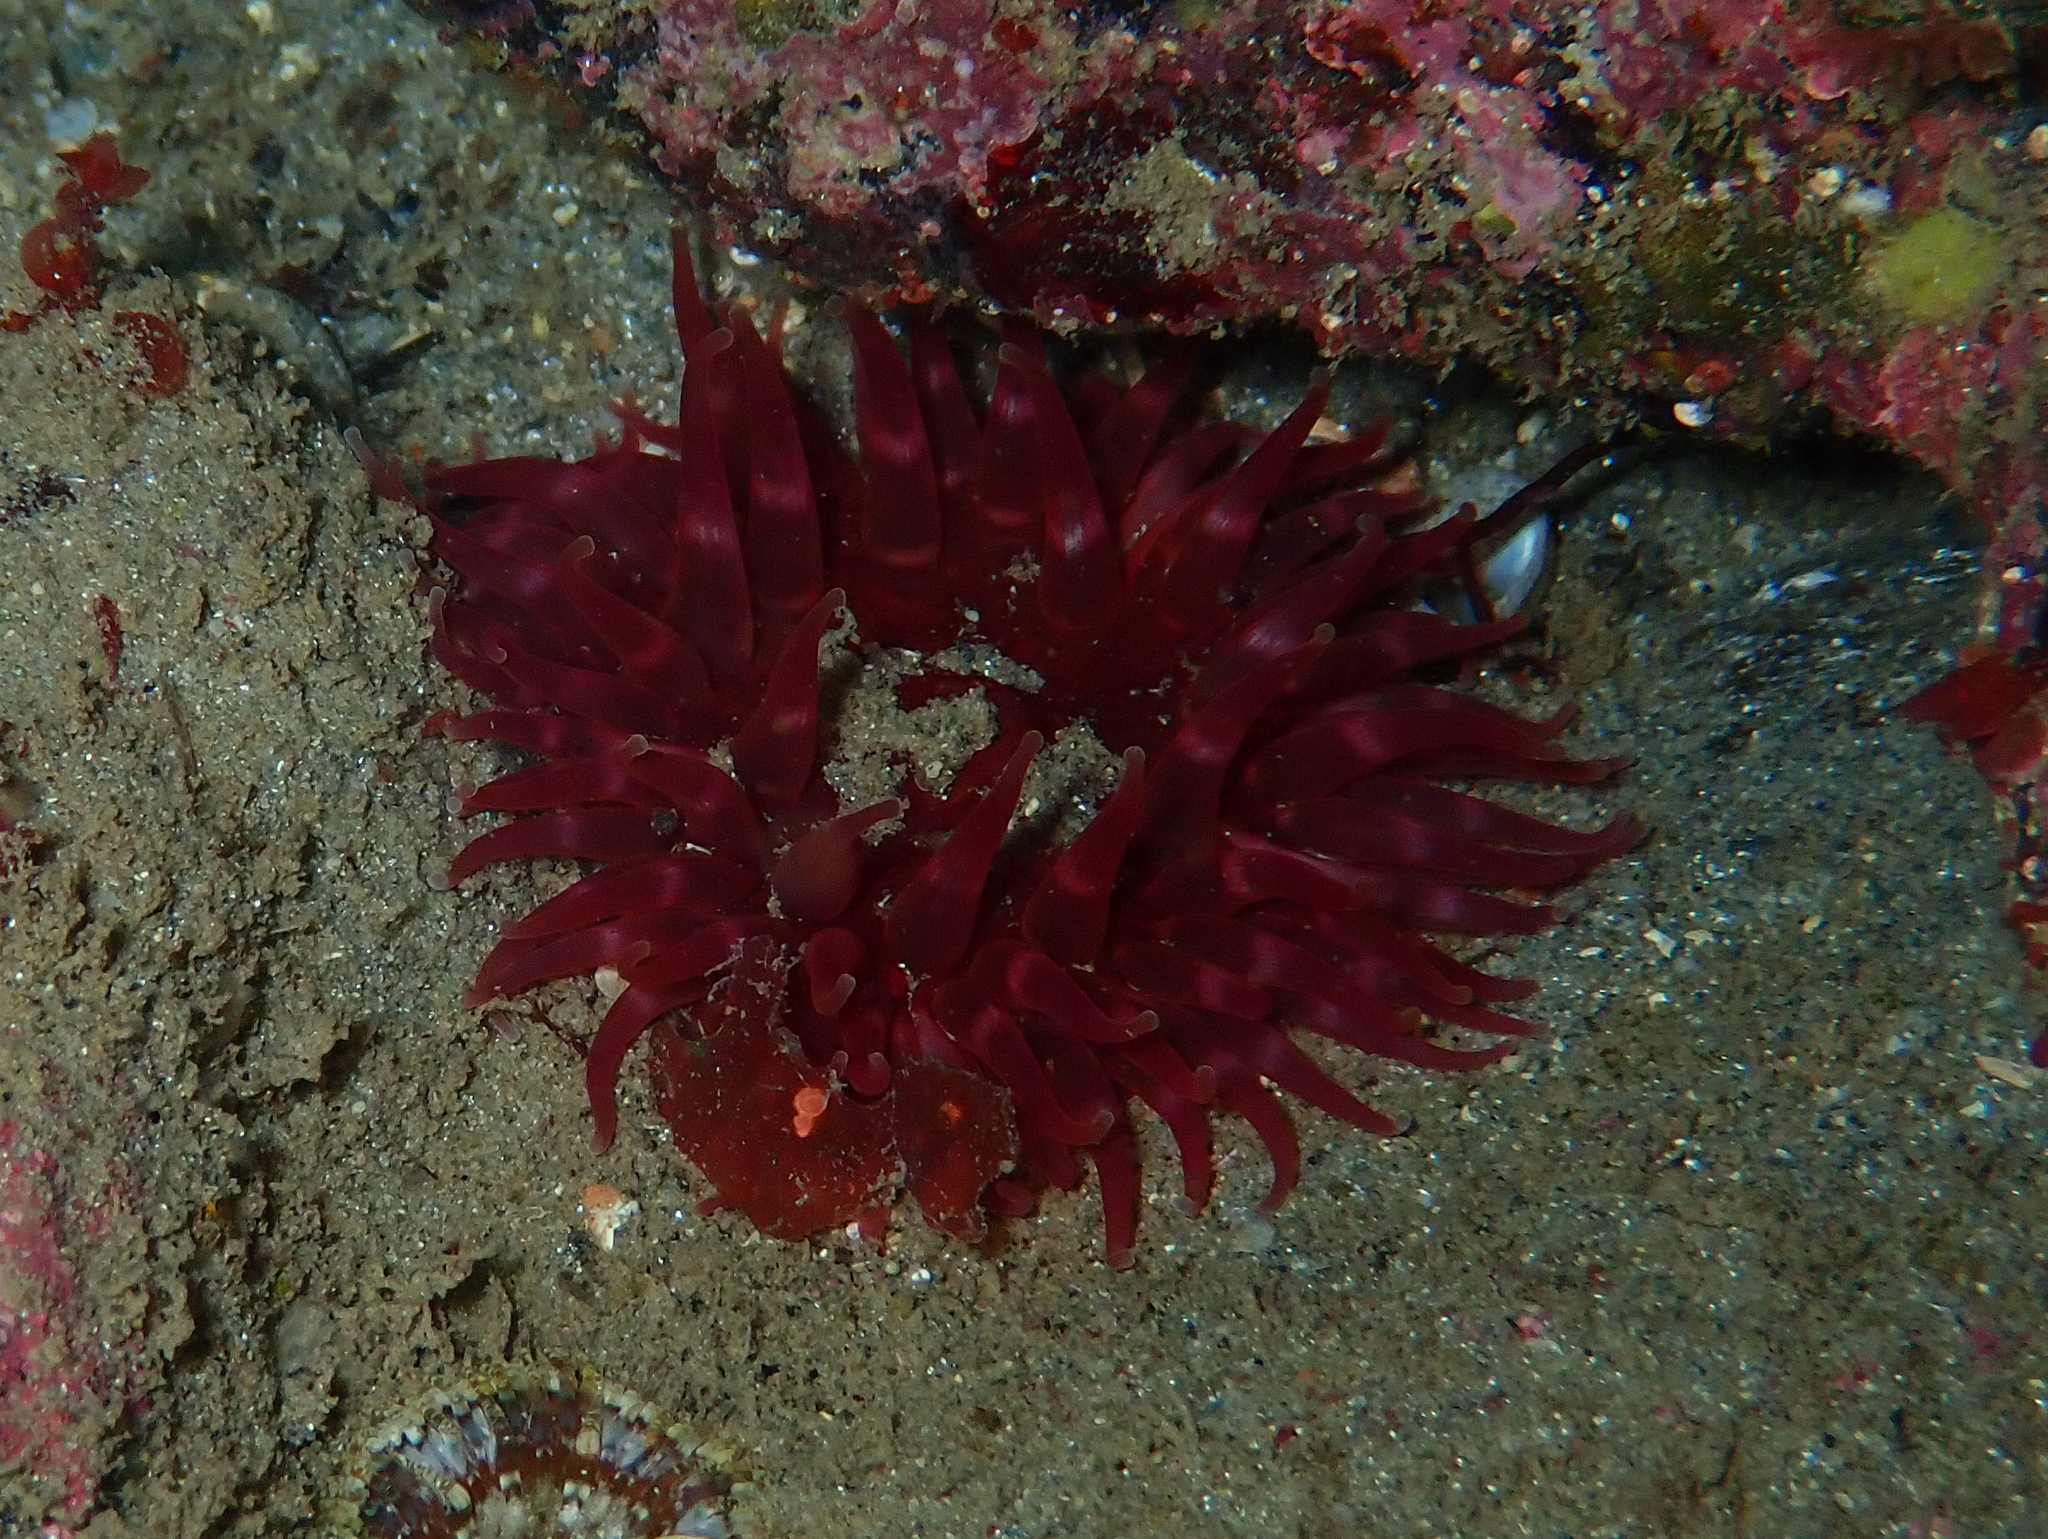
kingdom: Animalia
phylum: Cnidaria
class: Anthozoa
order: Actiniaria
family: Actiniidae
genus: Urticina
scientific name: Urticina felina
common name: Dahlia anemone
